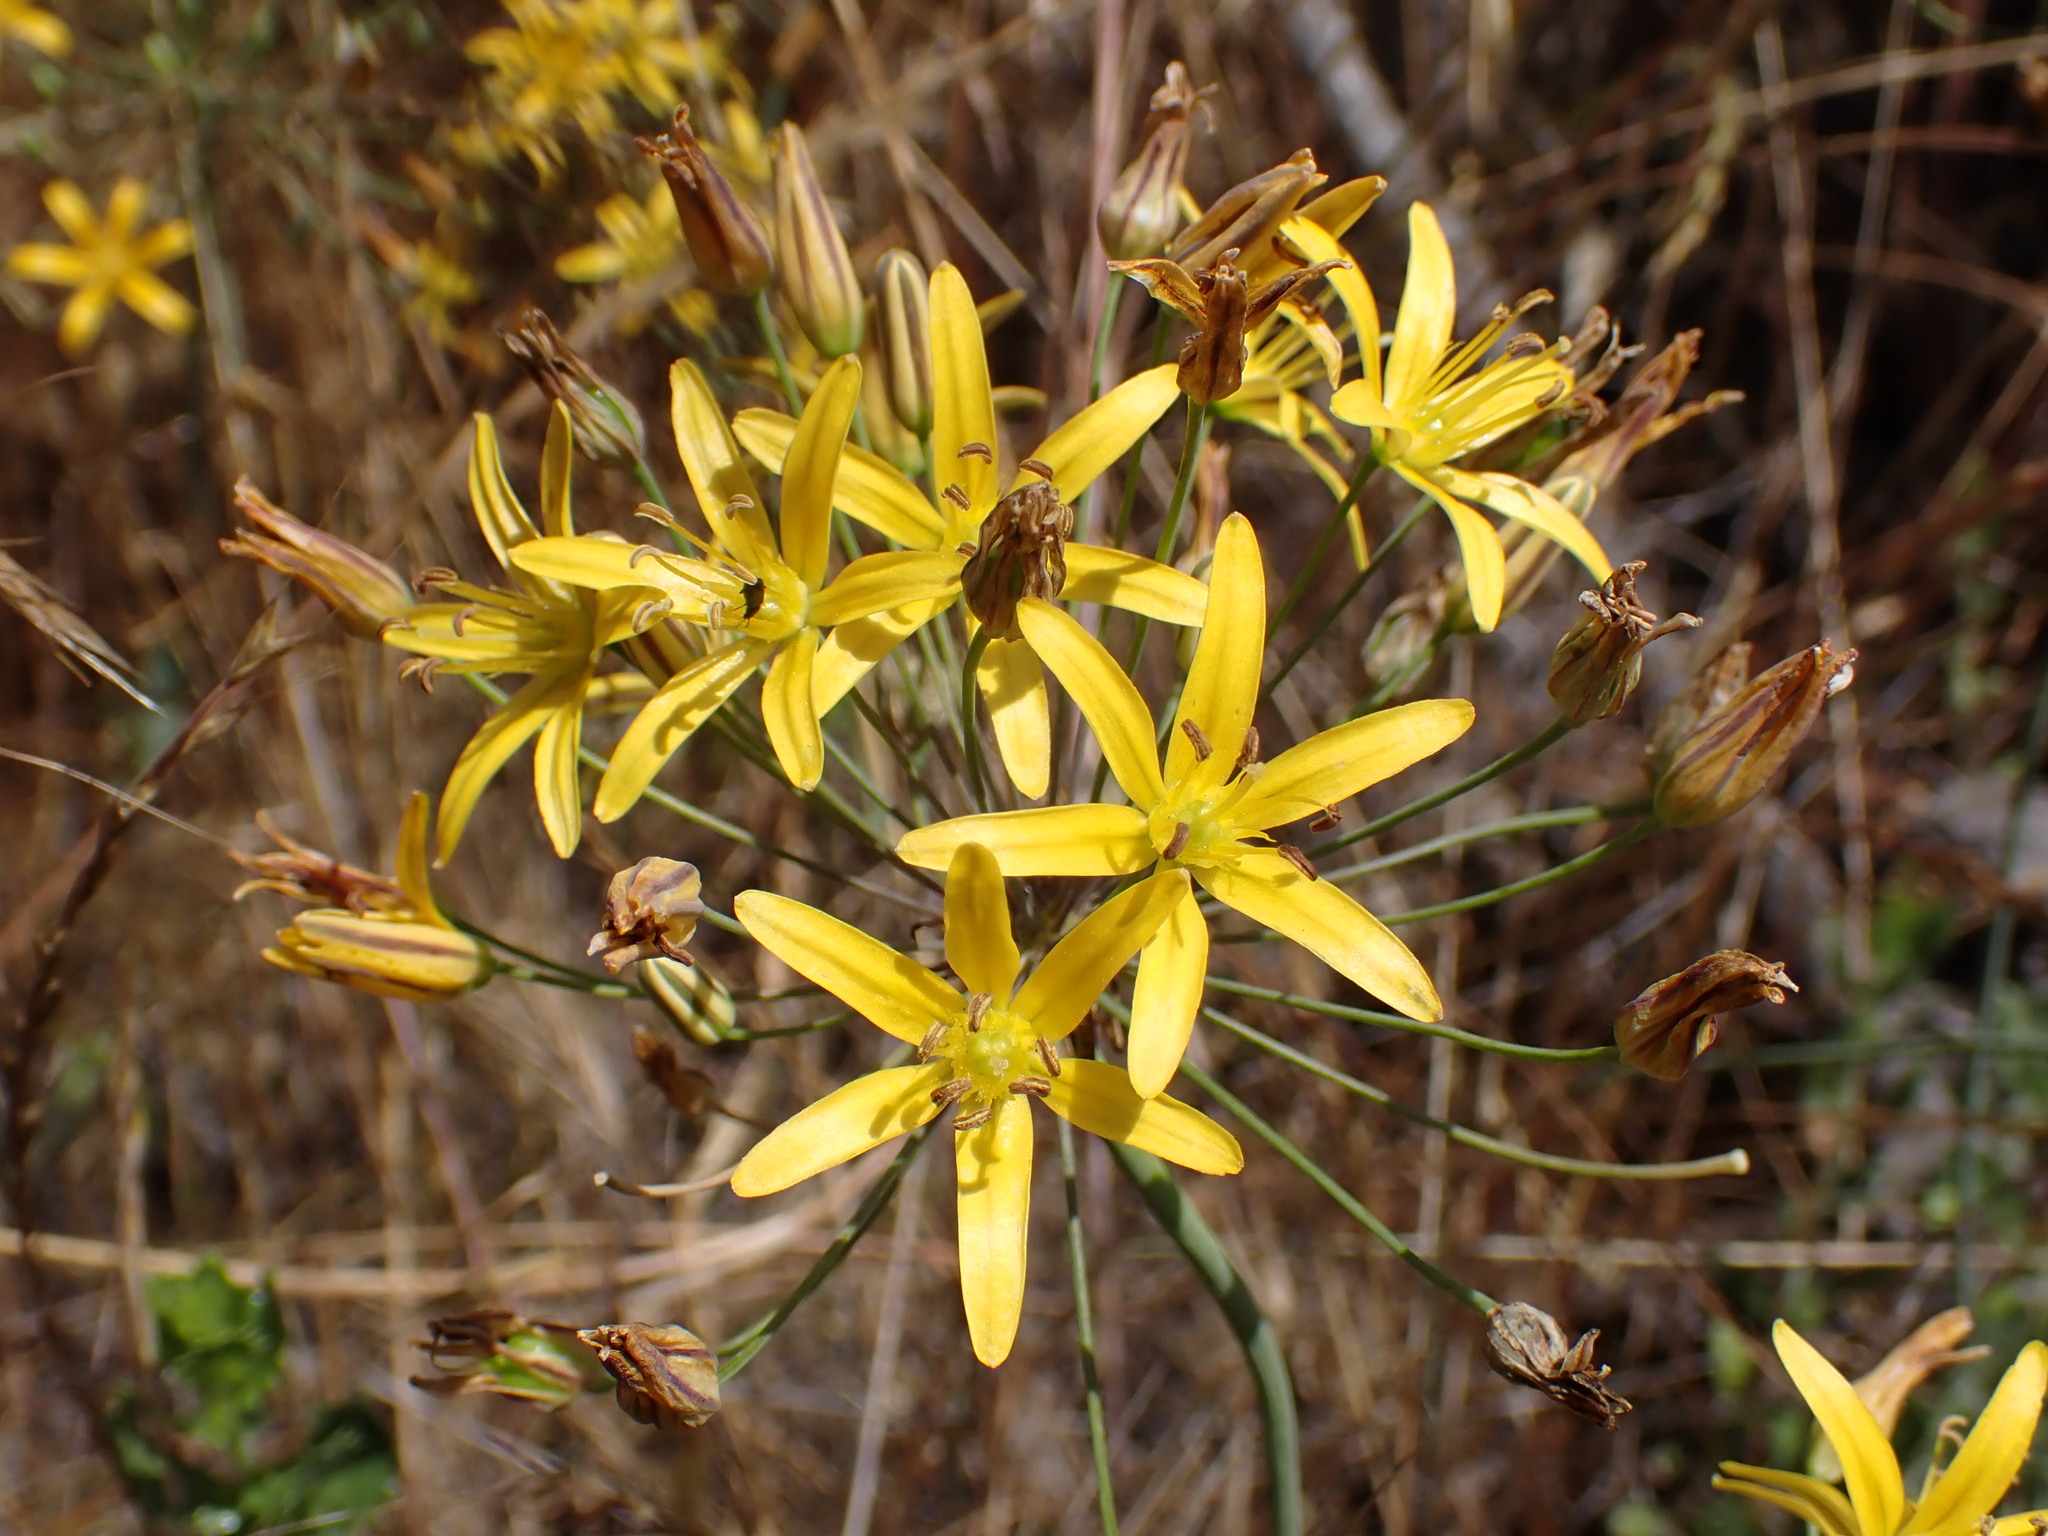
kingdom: Plantae
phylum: Tracheophyta
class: Liliopsida
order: Asparagales
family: Asparagaceae
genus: Bloomeria
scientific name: Bloomeria crocea
